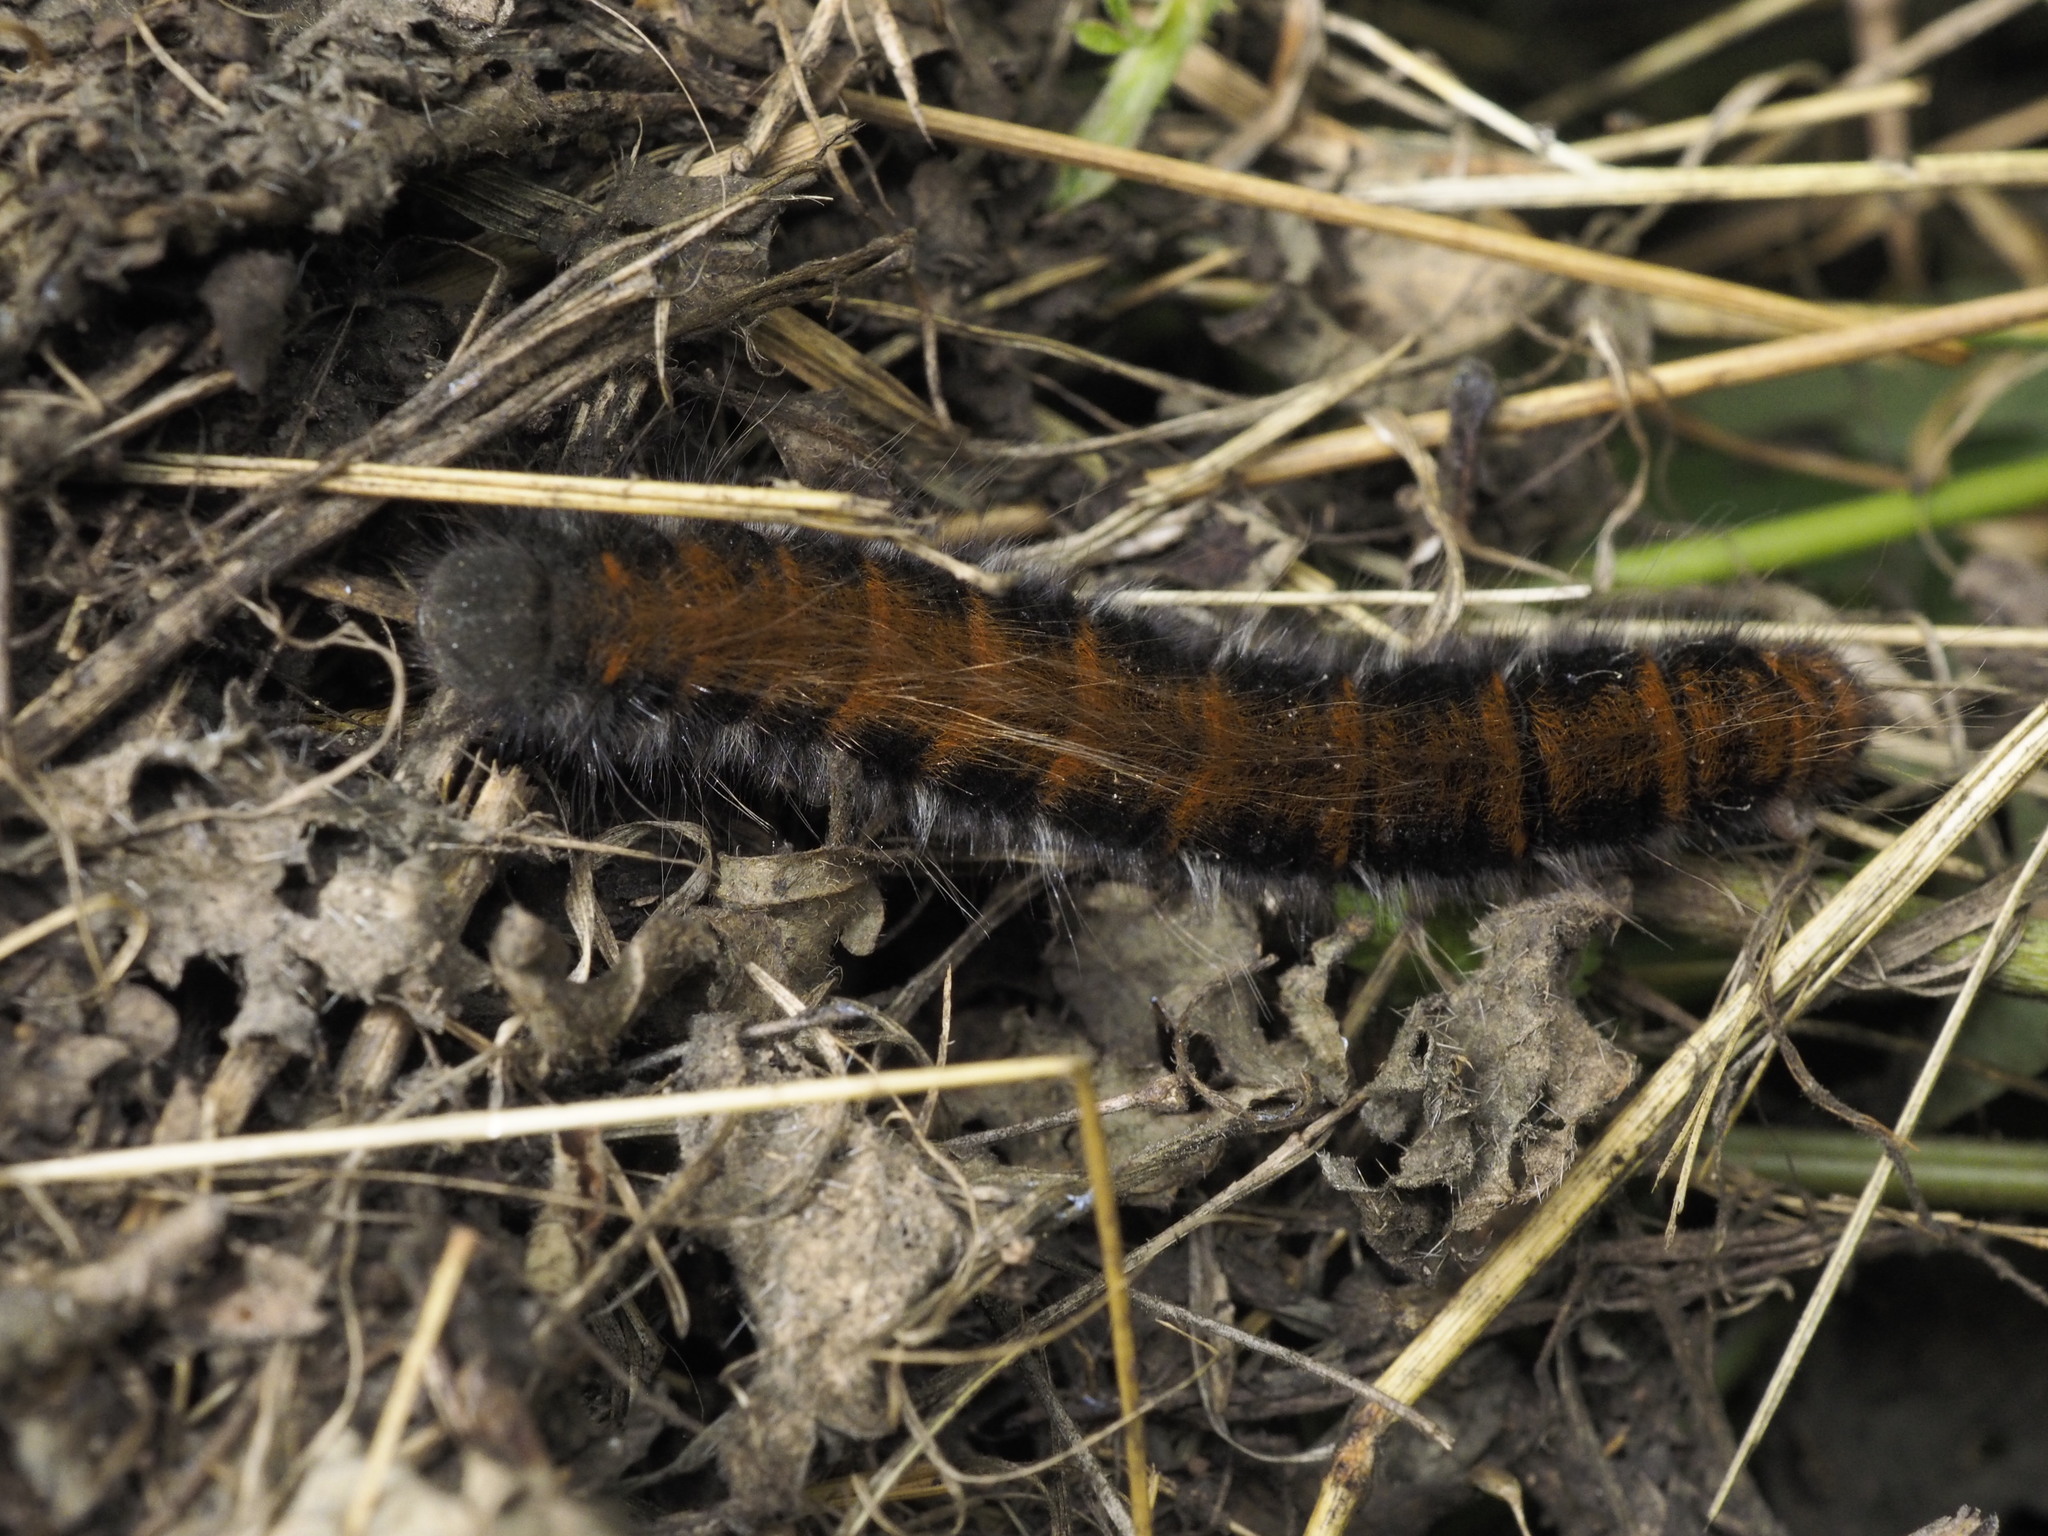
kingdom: Animalia
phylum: Arthropoda
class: Insecta
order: Lepidoptera
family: Lasiocampidae
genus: Macrothylacia
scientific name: Macrothylacia rubi
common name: Fox moth
